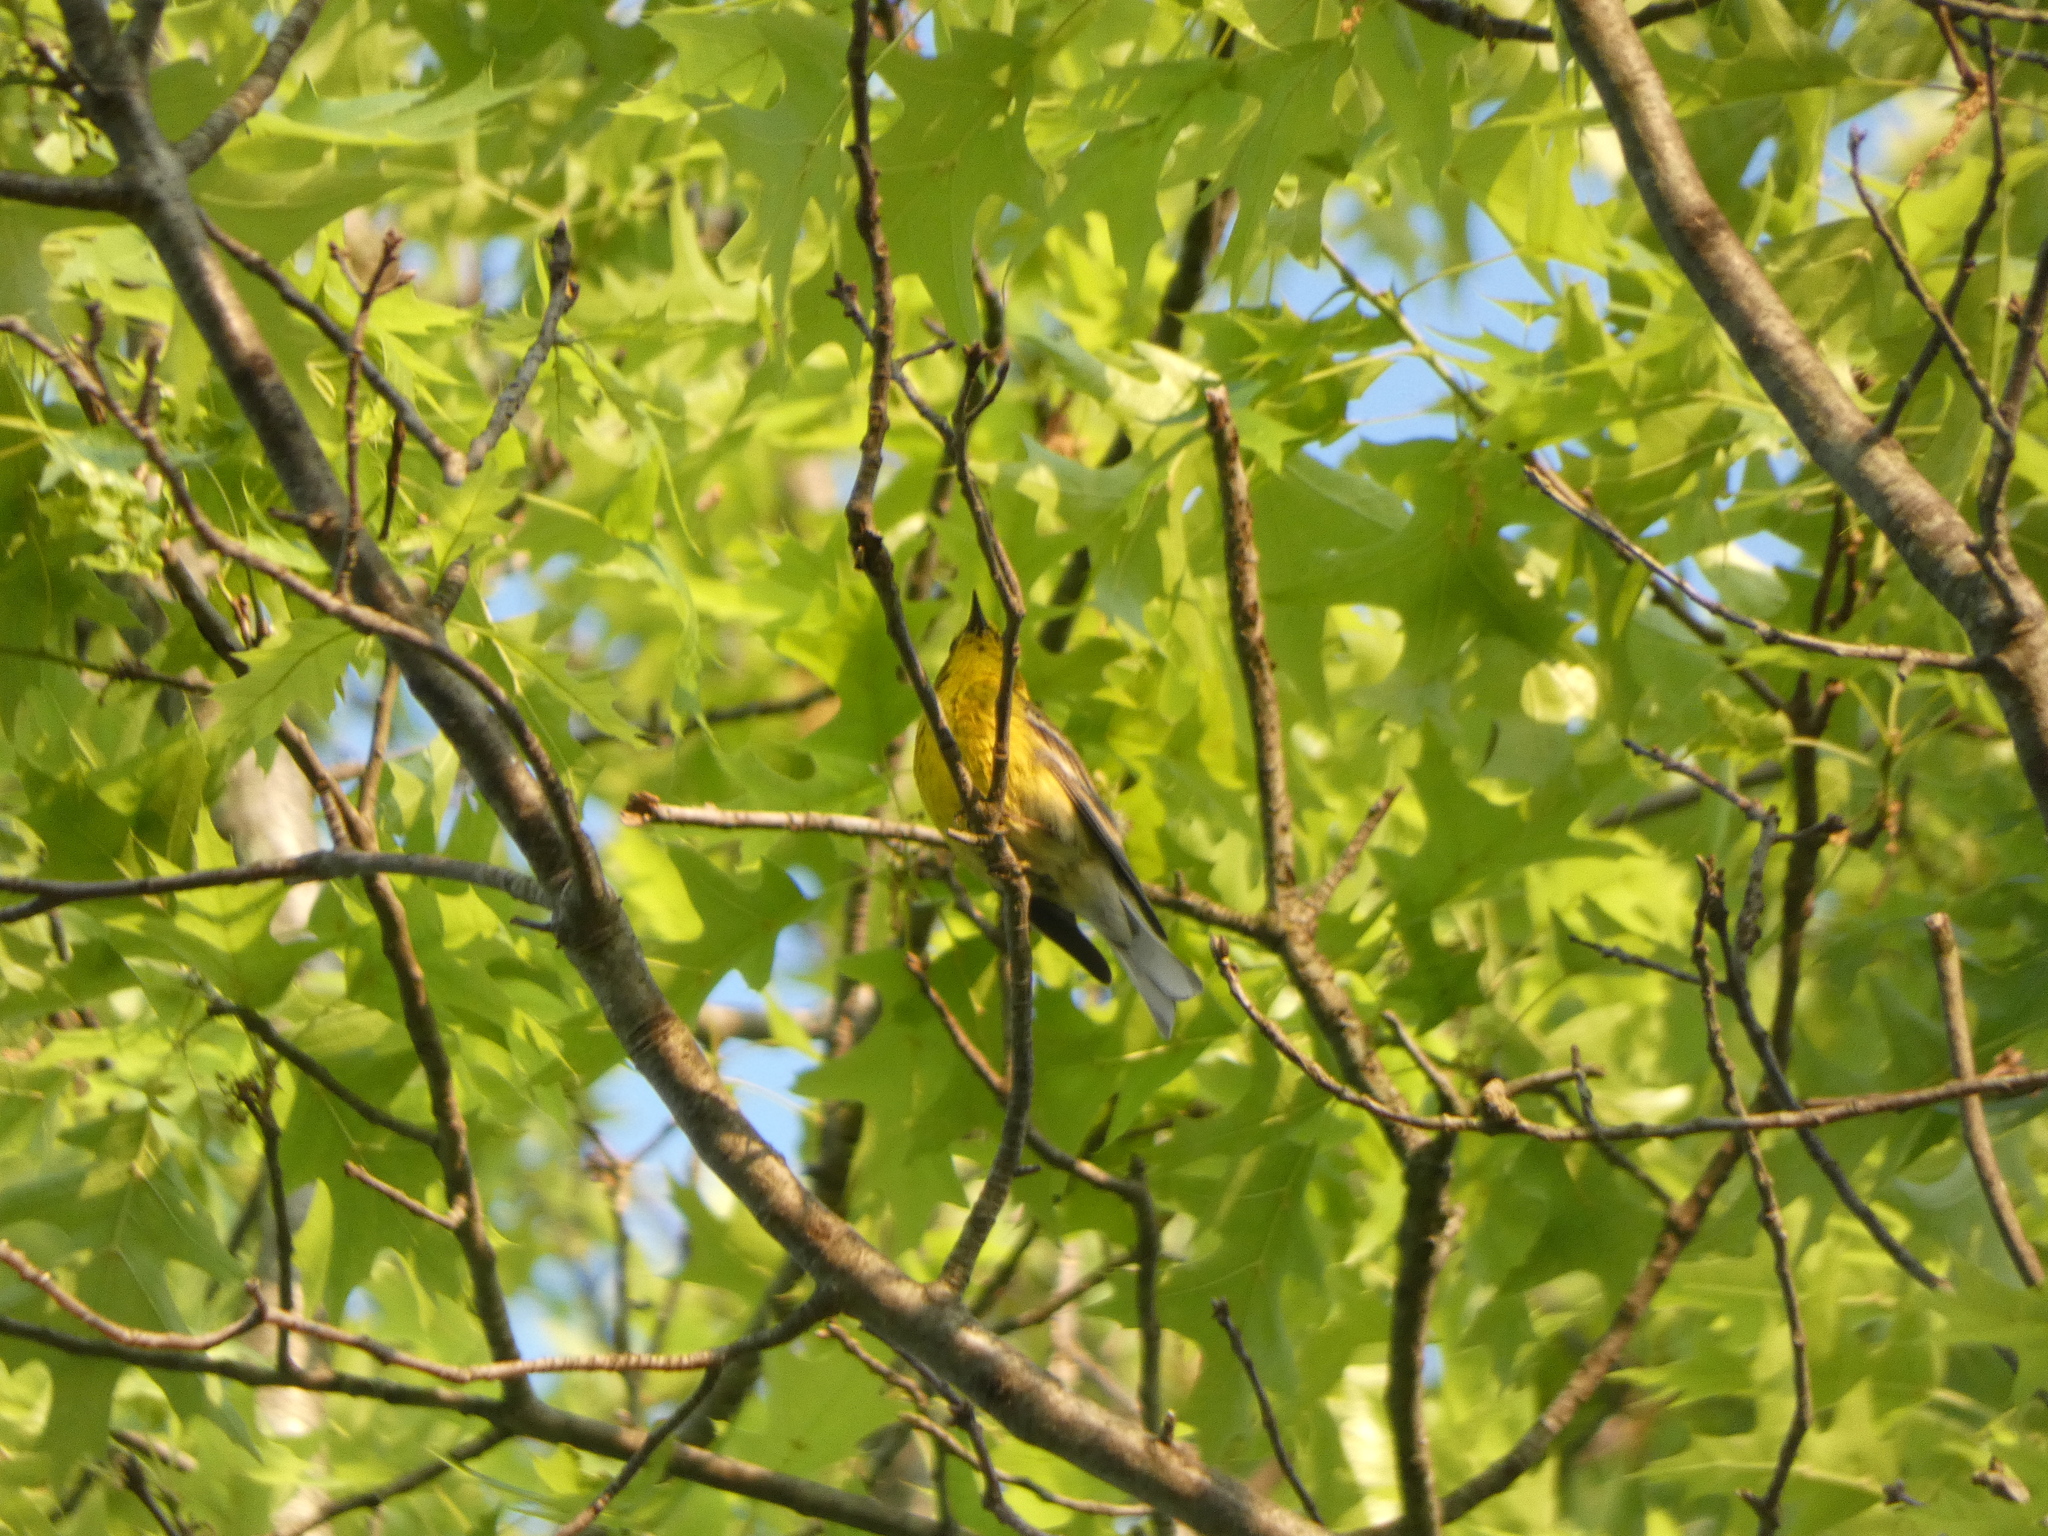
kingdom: Animalia
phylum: Chordata
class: Aves
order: Passeriformes
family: Parulidae
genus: Setophaga
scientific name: Setophaga pinus
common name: Pine warbler
